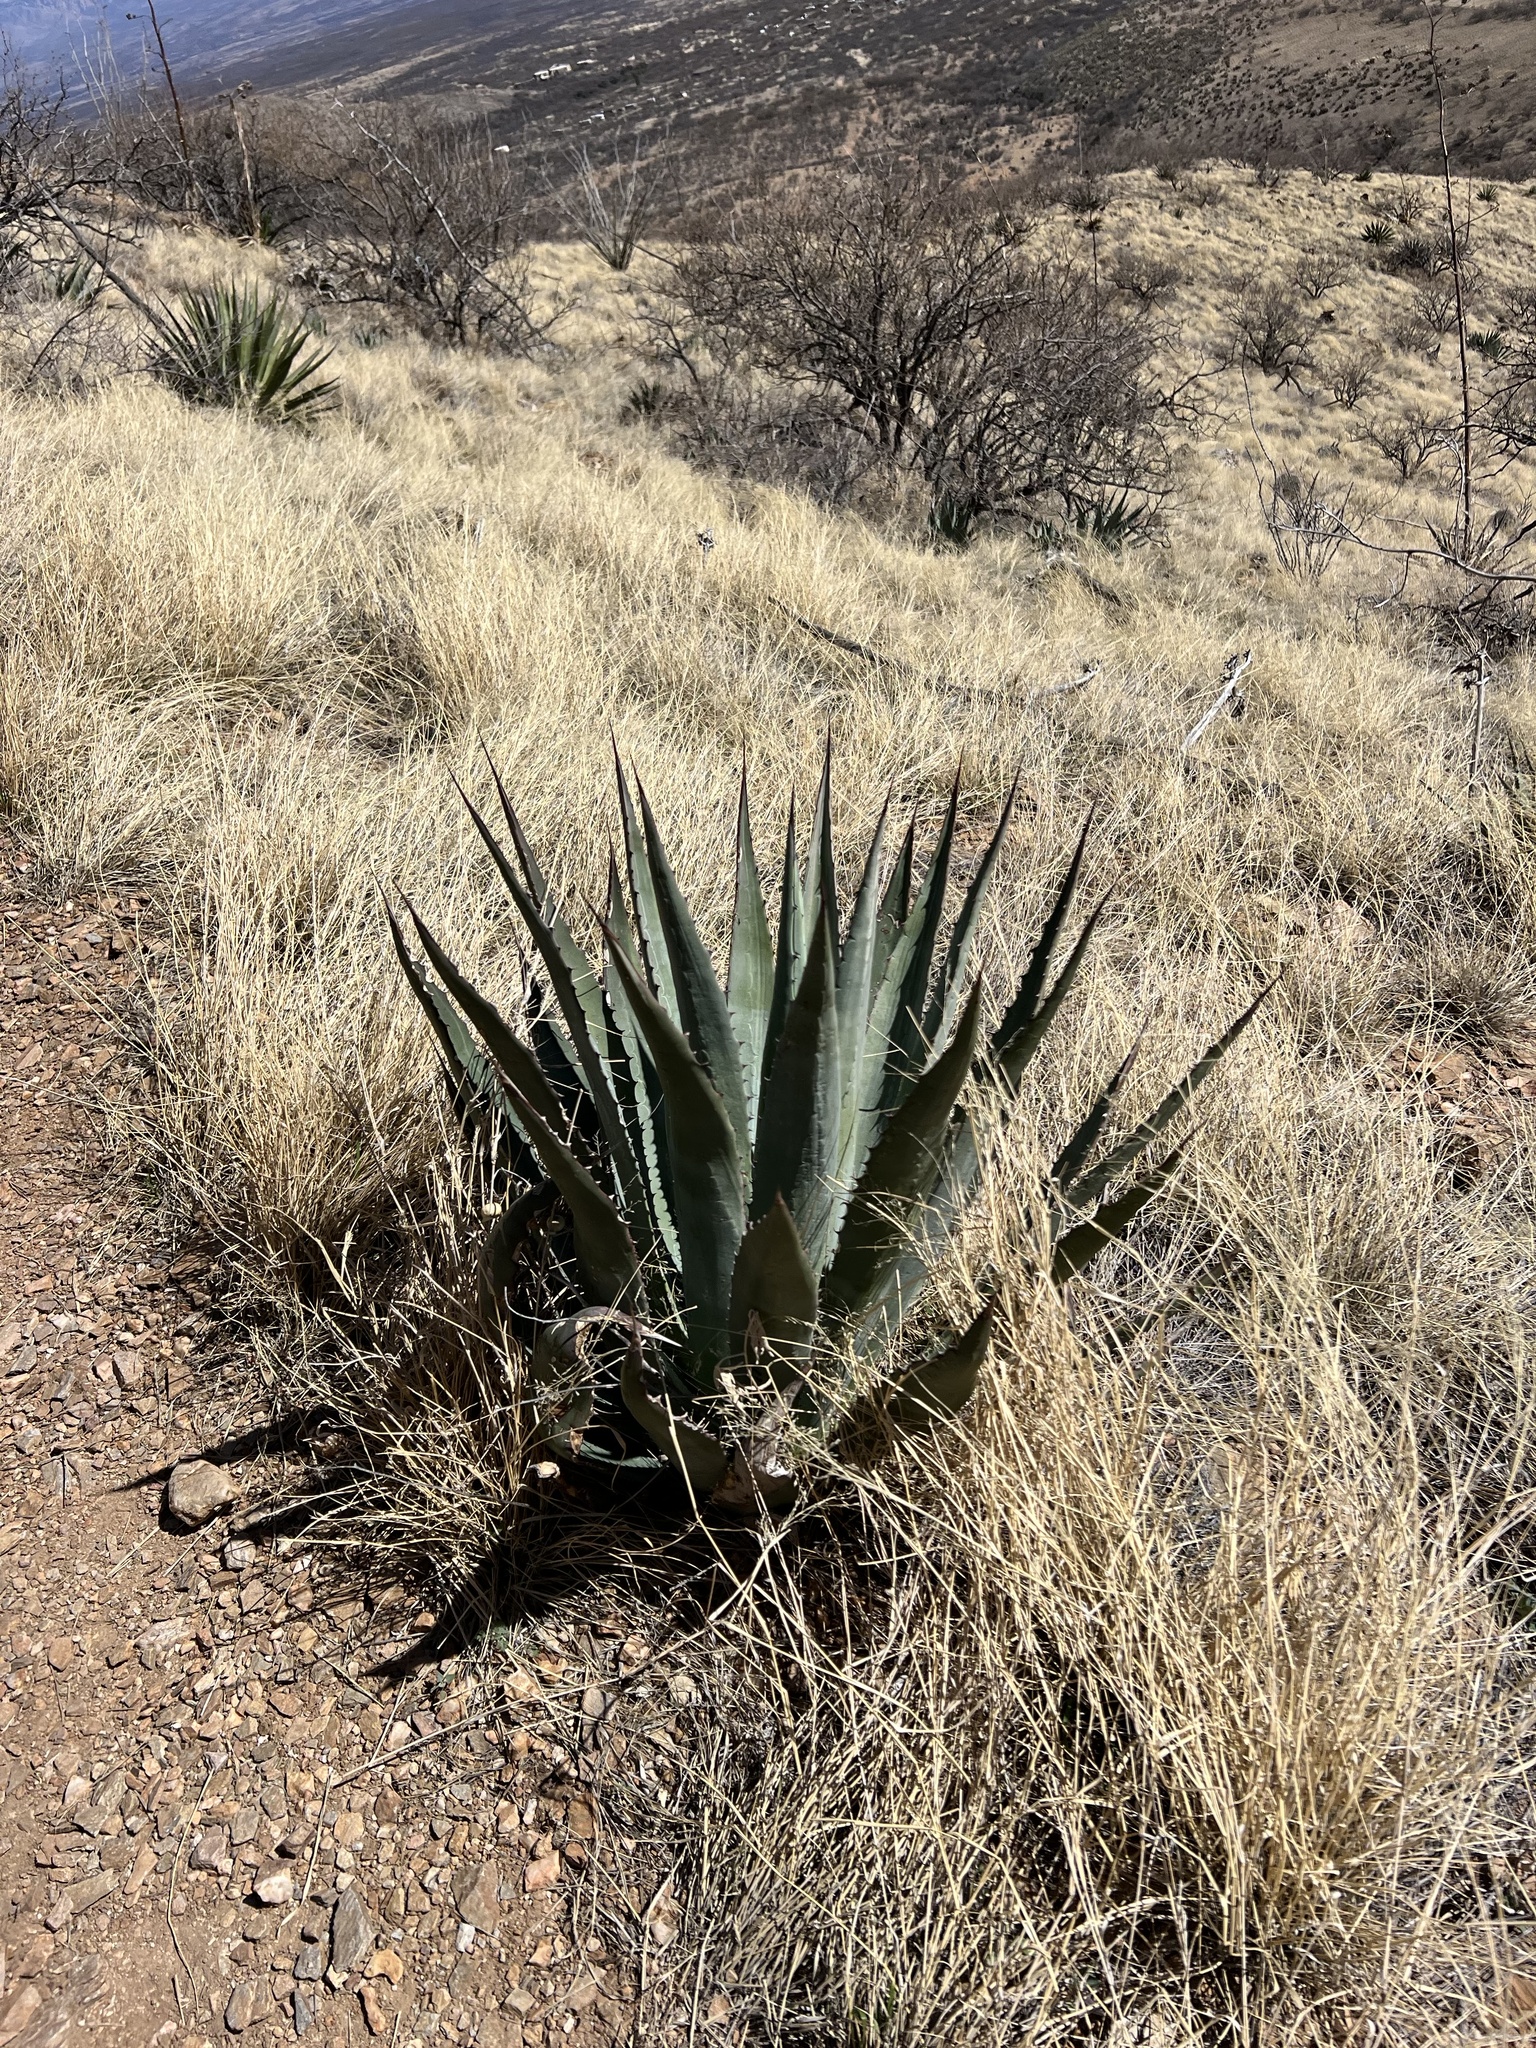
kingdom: Plantae
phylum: Tracheophyta
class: Liliopsida
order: Asparagales
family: Asparagaceae
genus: Agave
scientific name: Agave palmeri
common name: Palmer agave
